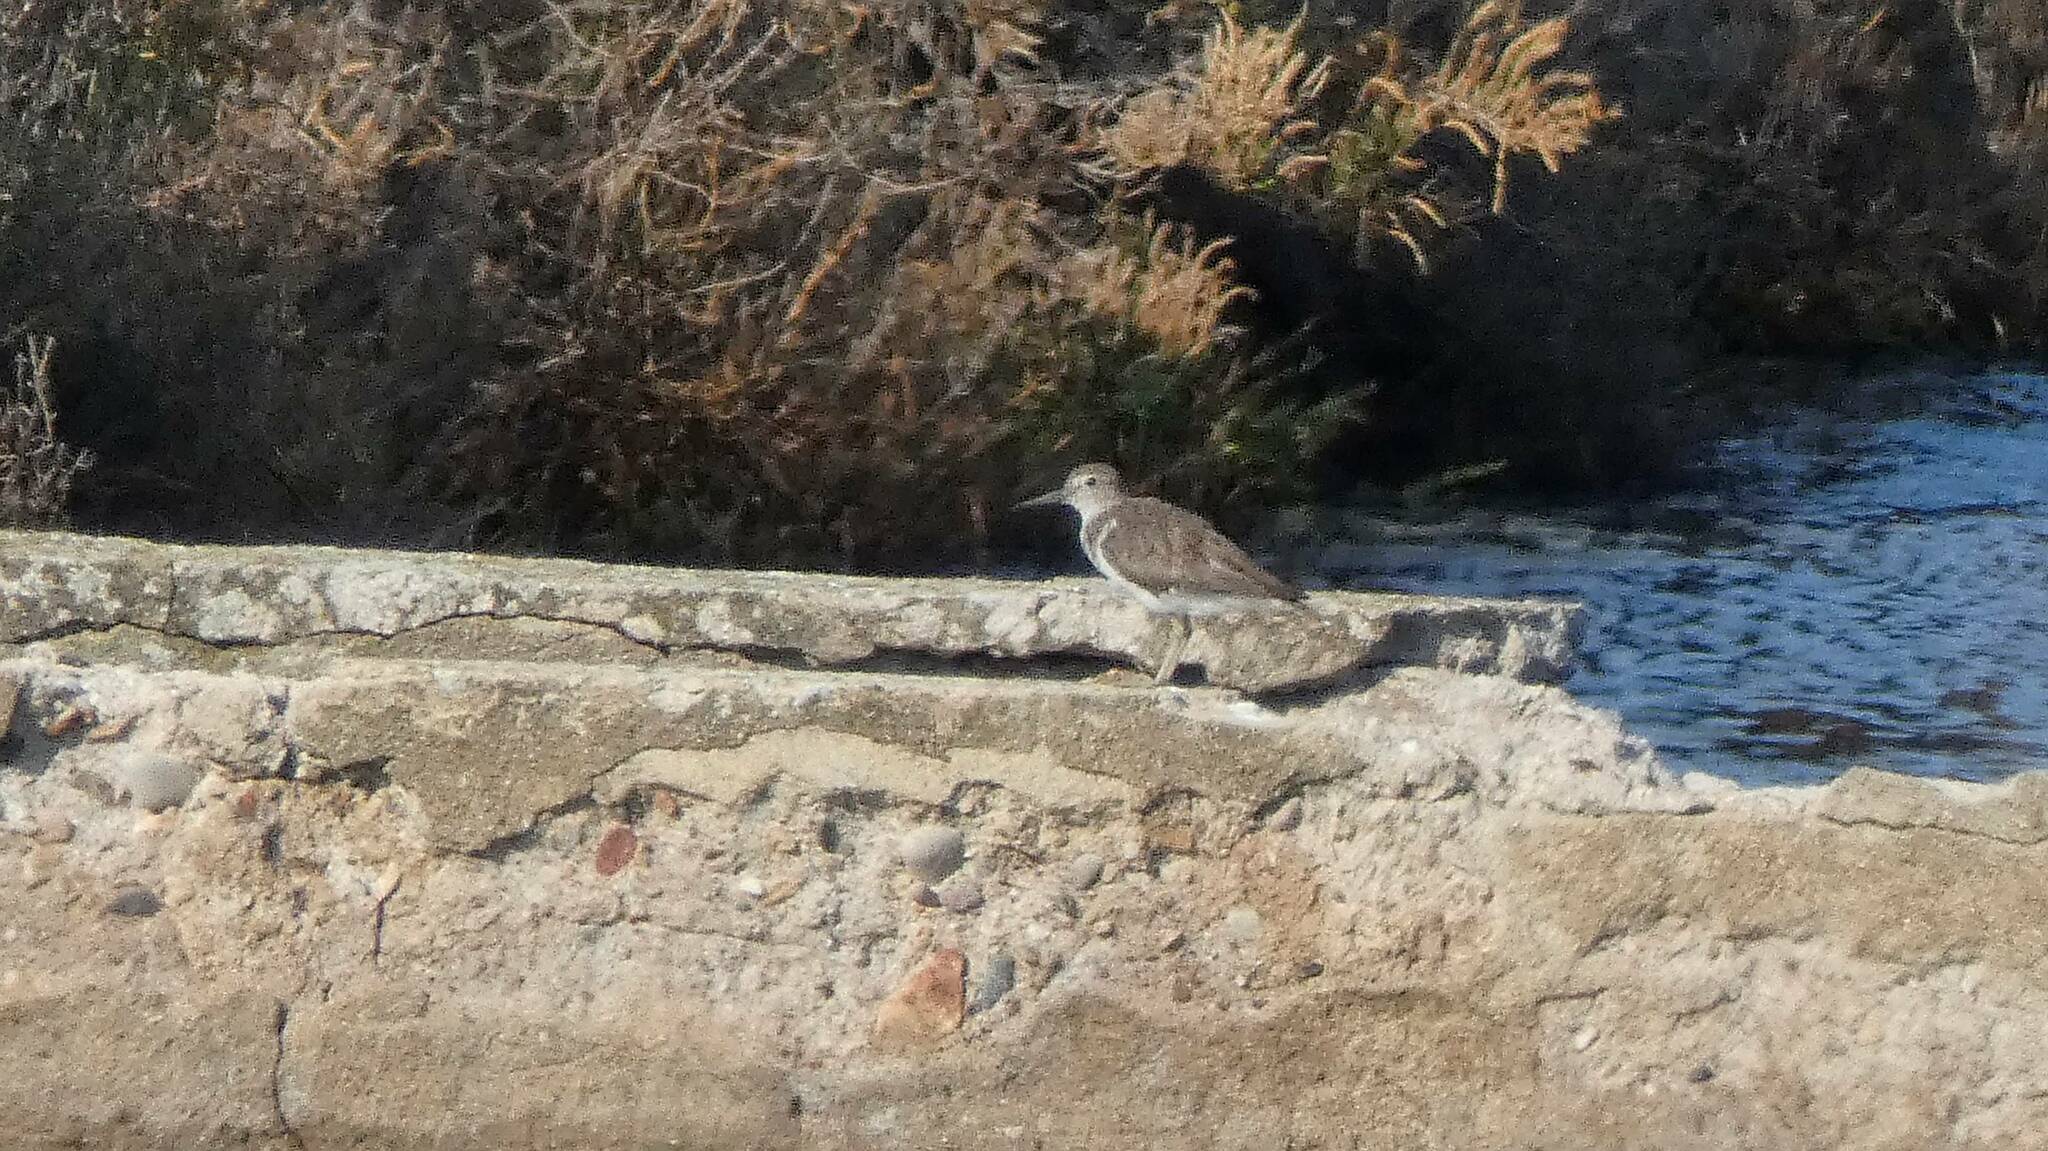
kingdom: Animalia
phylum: Chordata
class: Aves
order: Charadriiformes
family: Scolopacidae
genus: Actitis
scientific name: Actitis hypoleucos
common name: Common sandpiper
